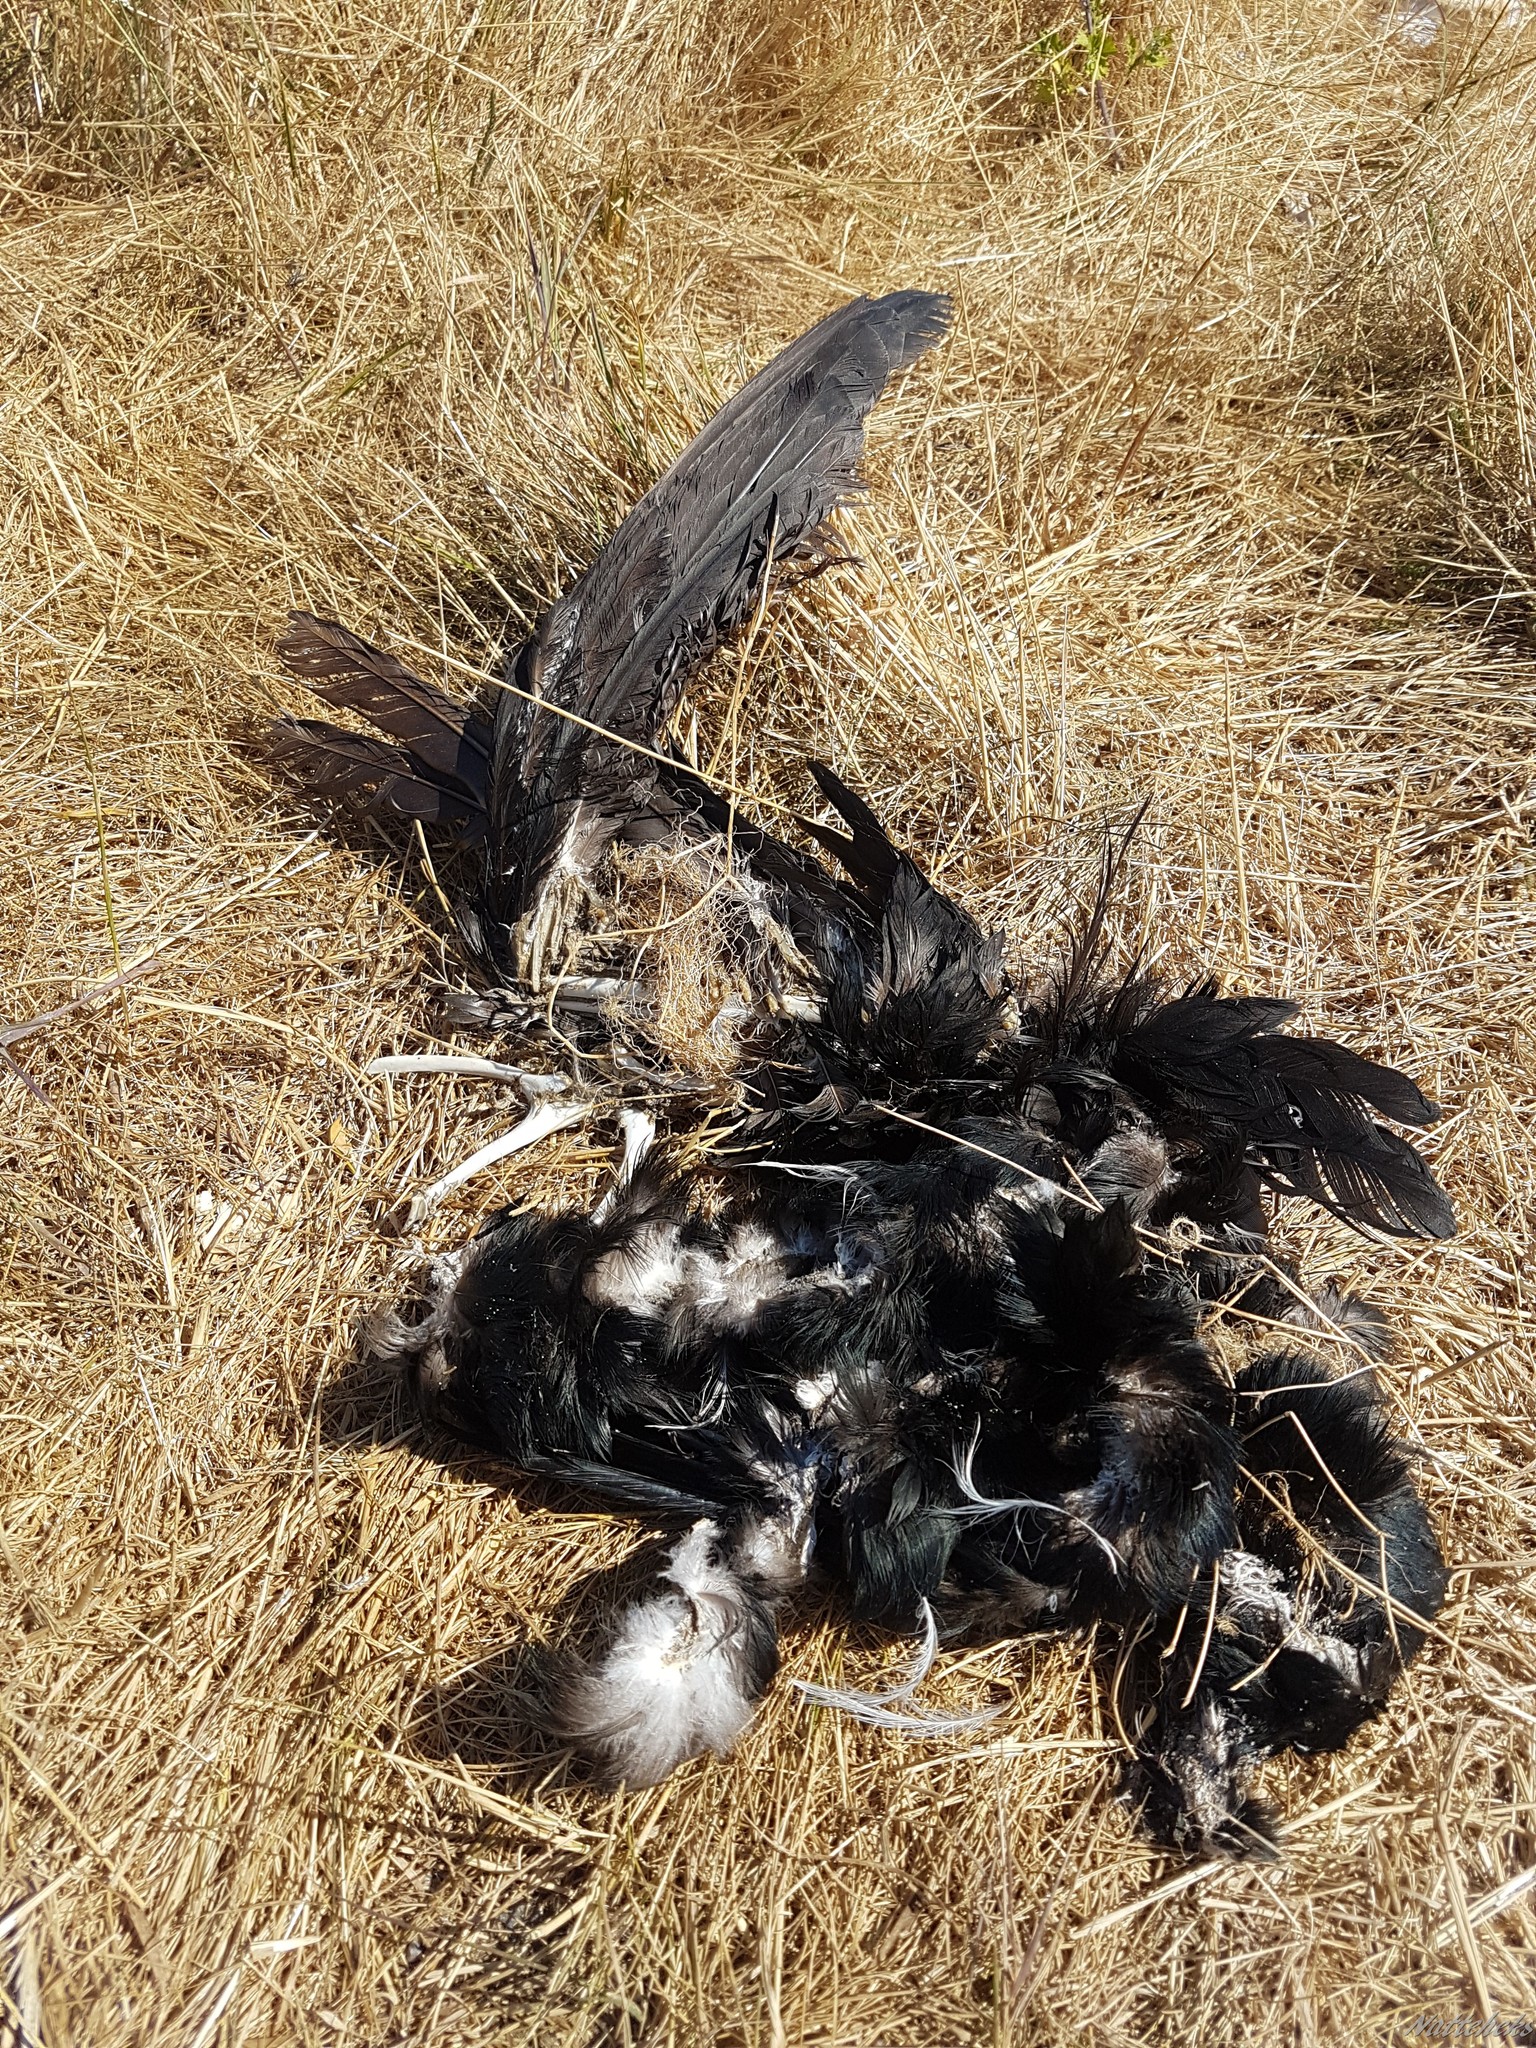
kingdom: Animalia
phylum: Chordata
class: Aves
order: Suliformes
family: Phalacrocoracidae
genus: Phalacrocorax
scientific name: Phalacrocorax carbo
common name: Great cormorant
